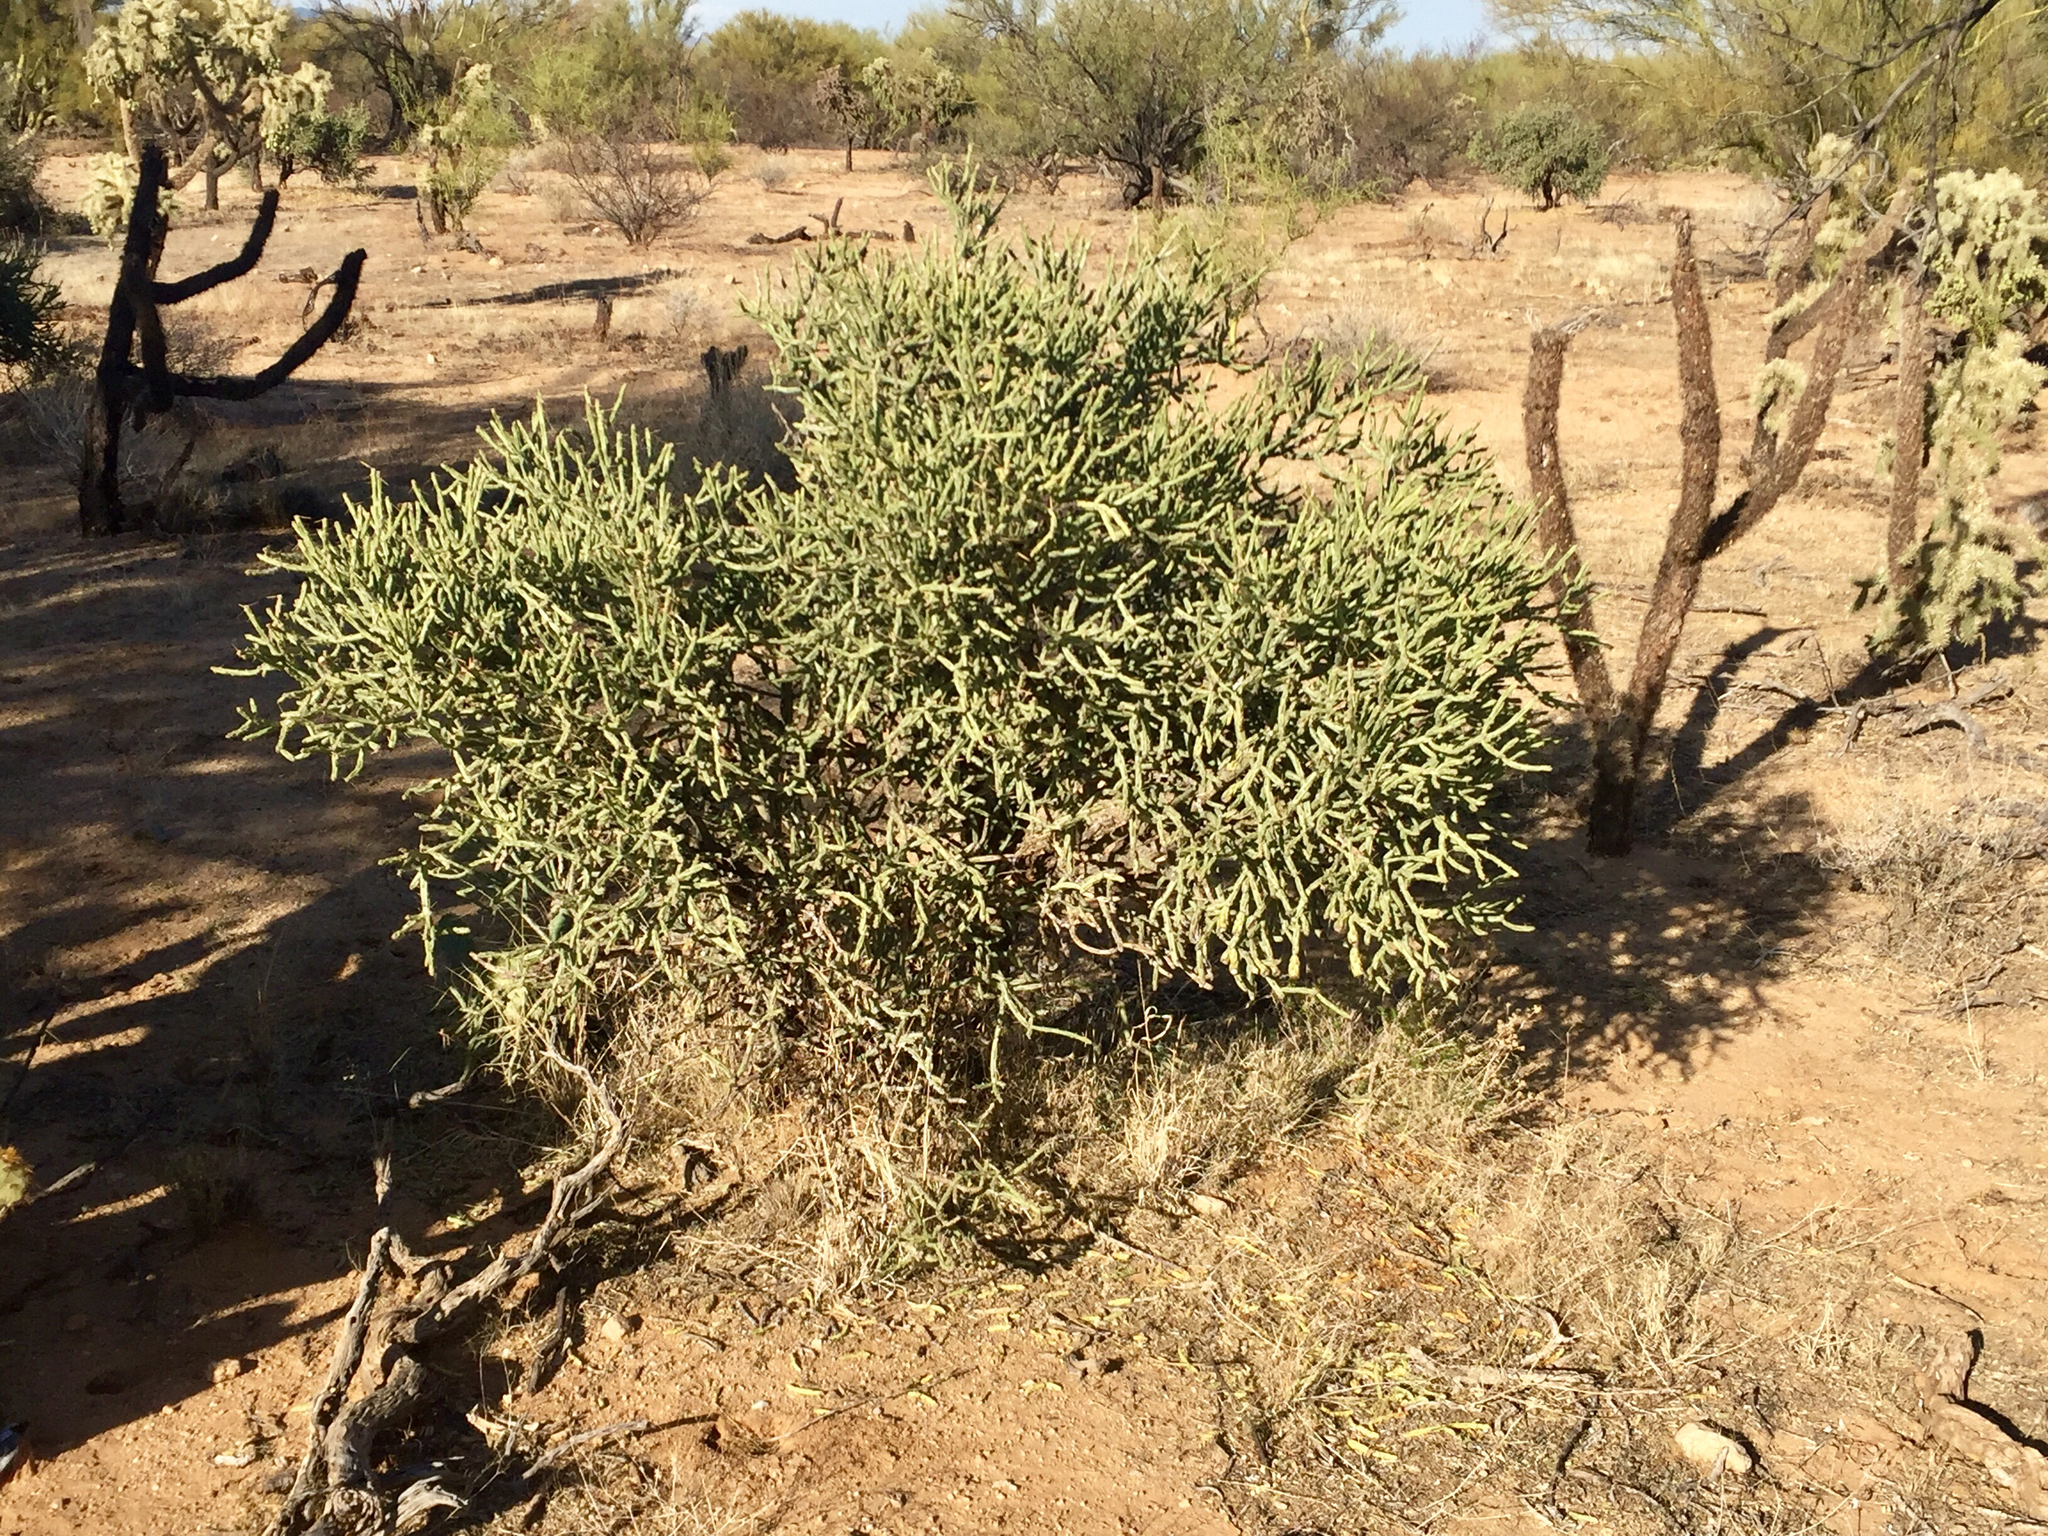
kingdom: Plantae
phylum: Tracheophyta
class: Magnoliopsida
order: Caryophyllales
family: Cactaceae
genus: Cylindropuntia
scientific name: Cylindropuntia arbuscula
